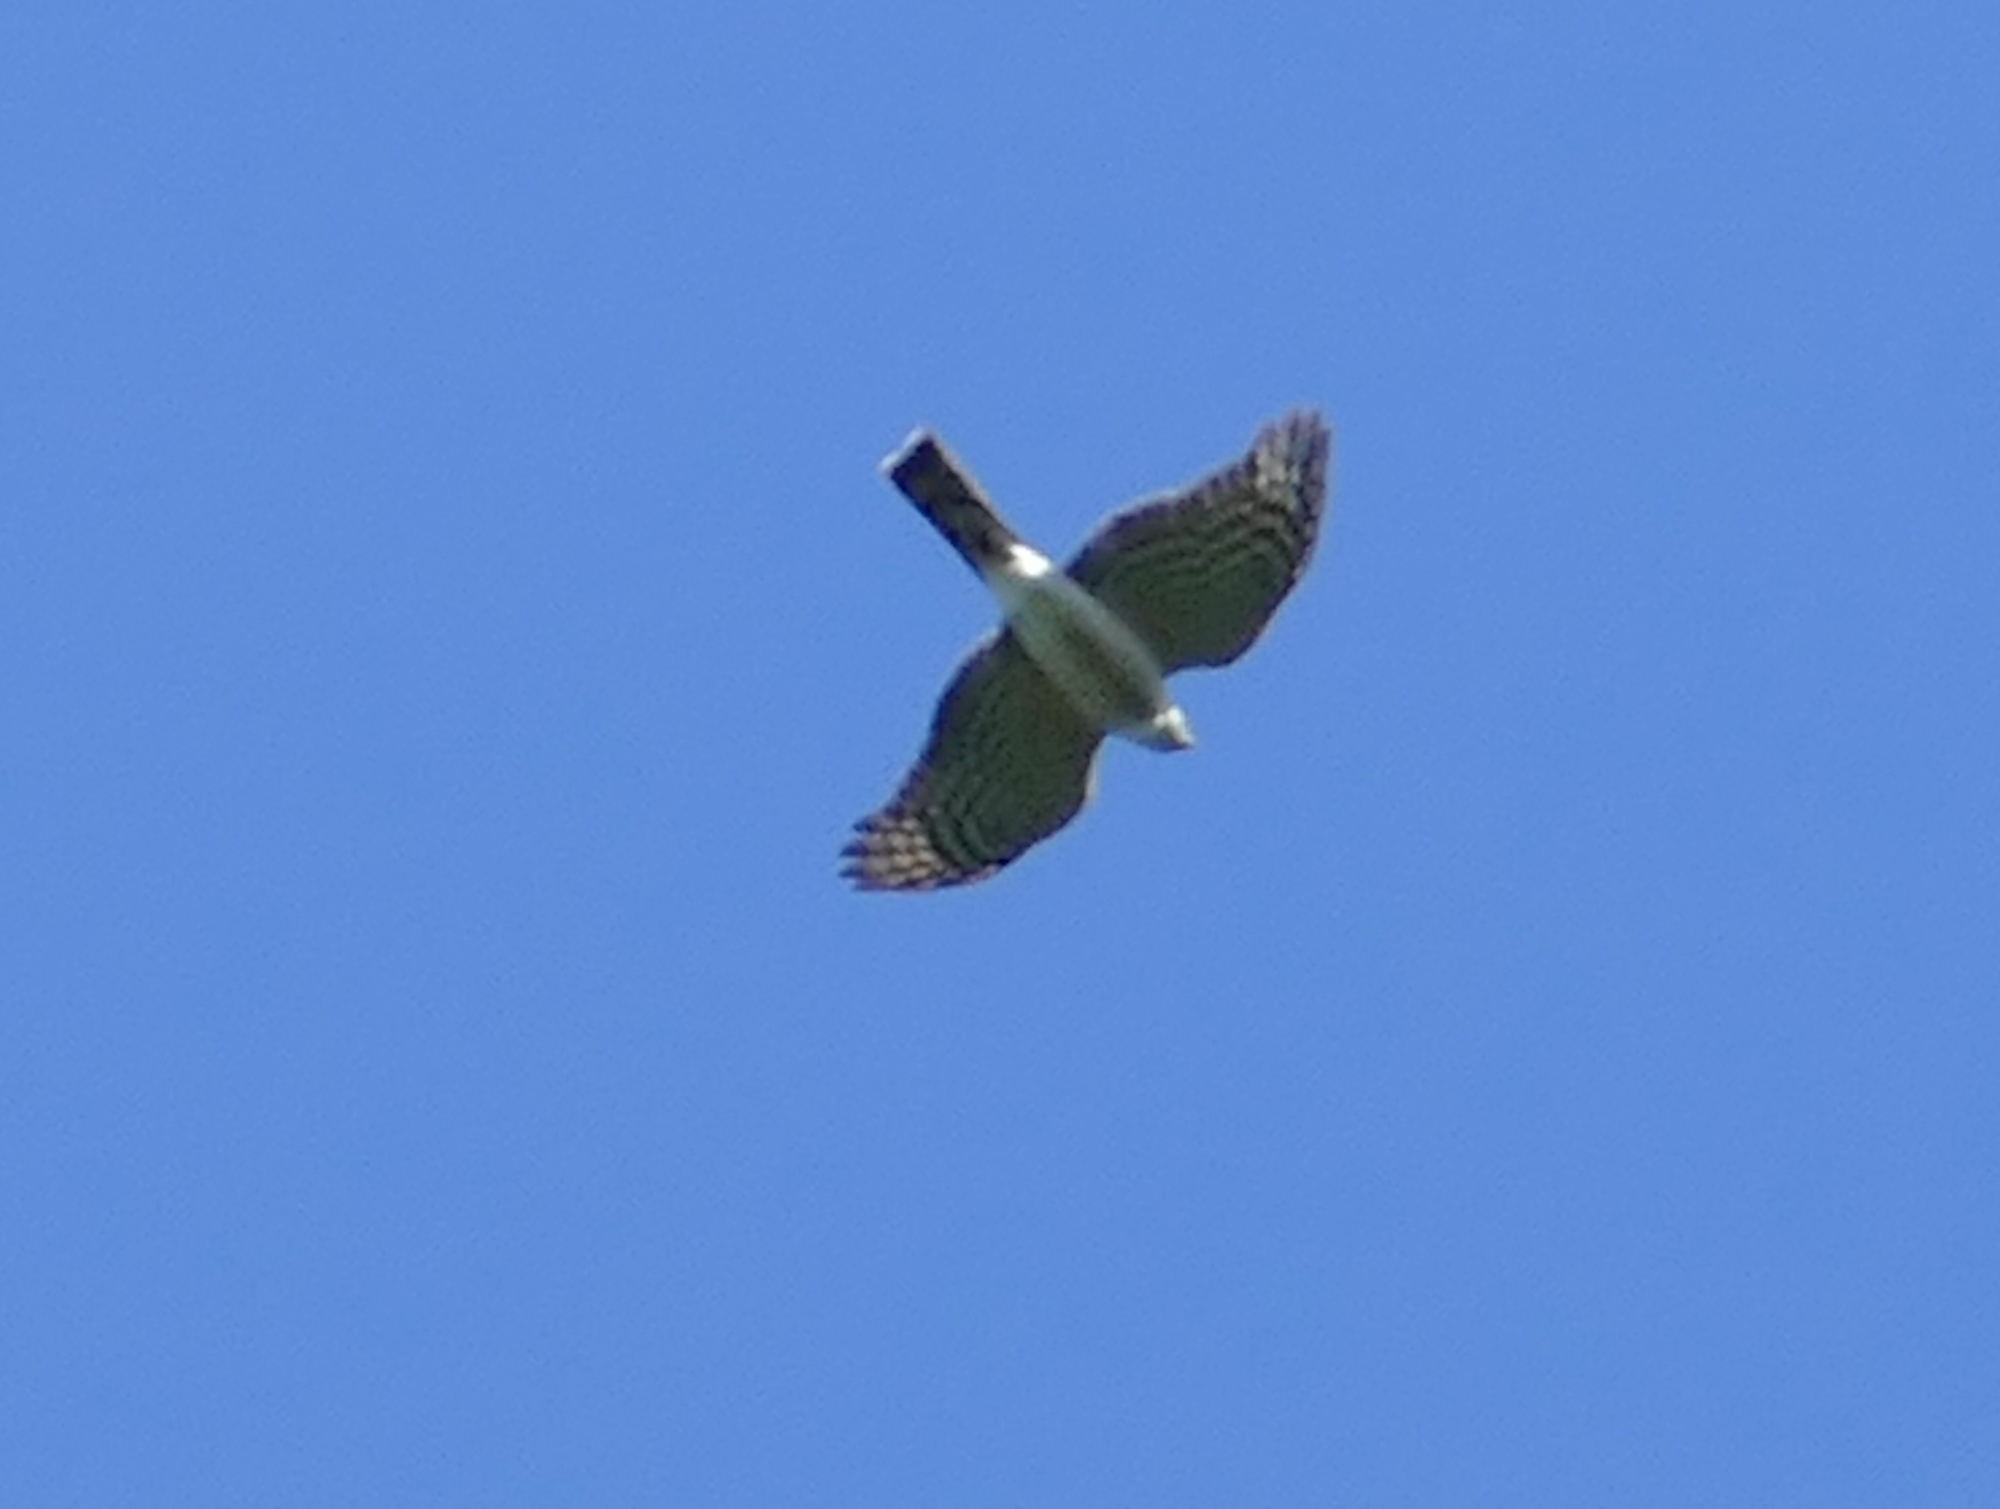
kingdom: Animalia
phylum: Chordata
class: Aves
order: Accipitriformes
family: Accipitridae
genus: Accipiter
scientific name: Accipiter striatus
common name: Sharp-shinned hawk
